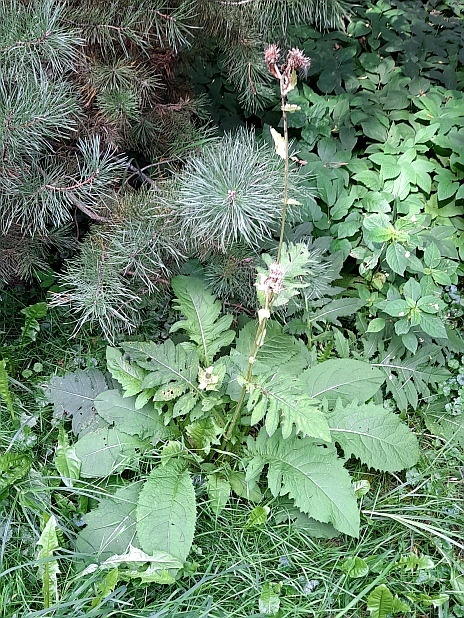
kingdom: Plantae
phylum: Tracheophyta
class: Magnoliopsida
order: Asterales
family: Asteraceae
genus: Cirsium
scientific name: Cirsium oleraceum
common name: Cabbage thistle
